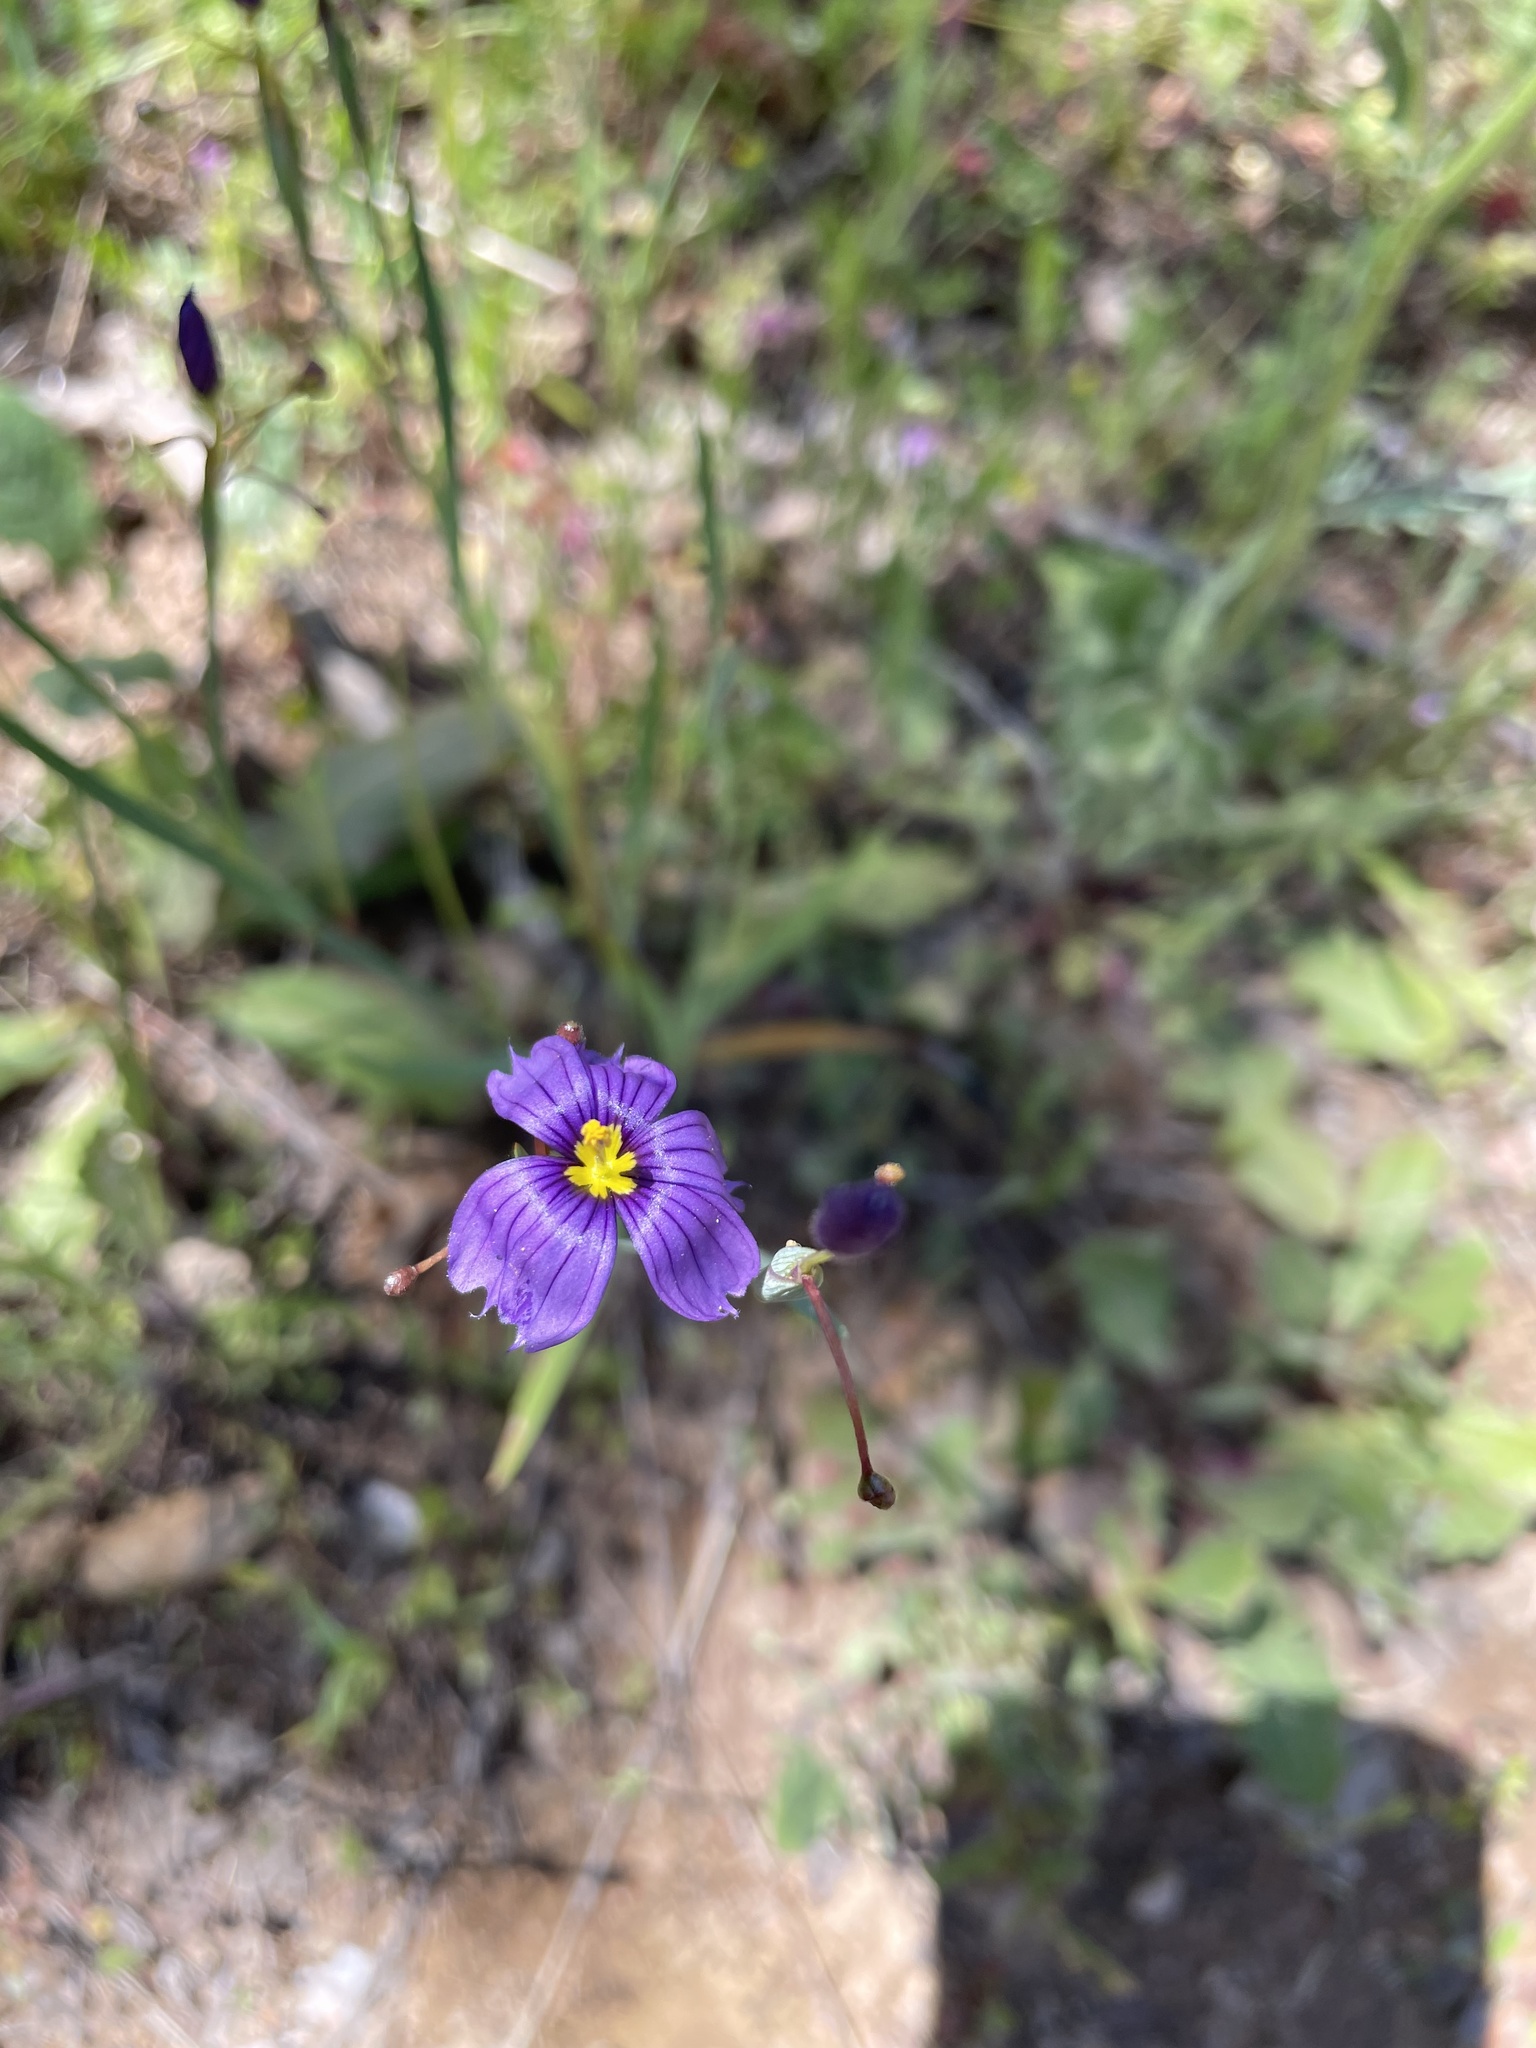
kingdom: Plantae
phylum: Tracheophyta
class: Liliopsida
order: Asparagales
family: Iridaceae
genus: Sisyrinchium
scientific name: Sisyrinchium bellum
